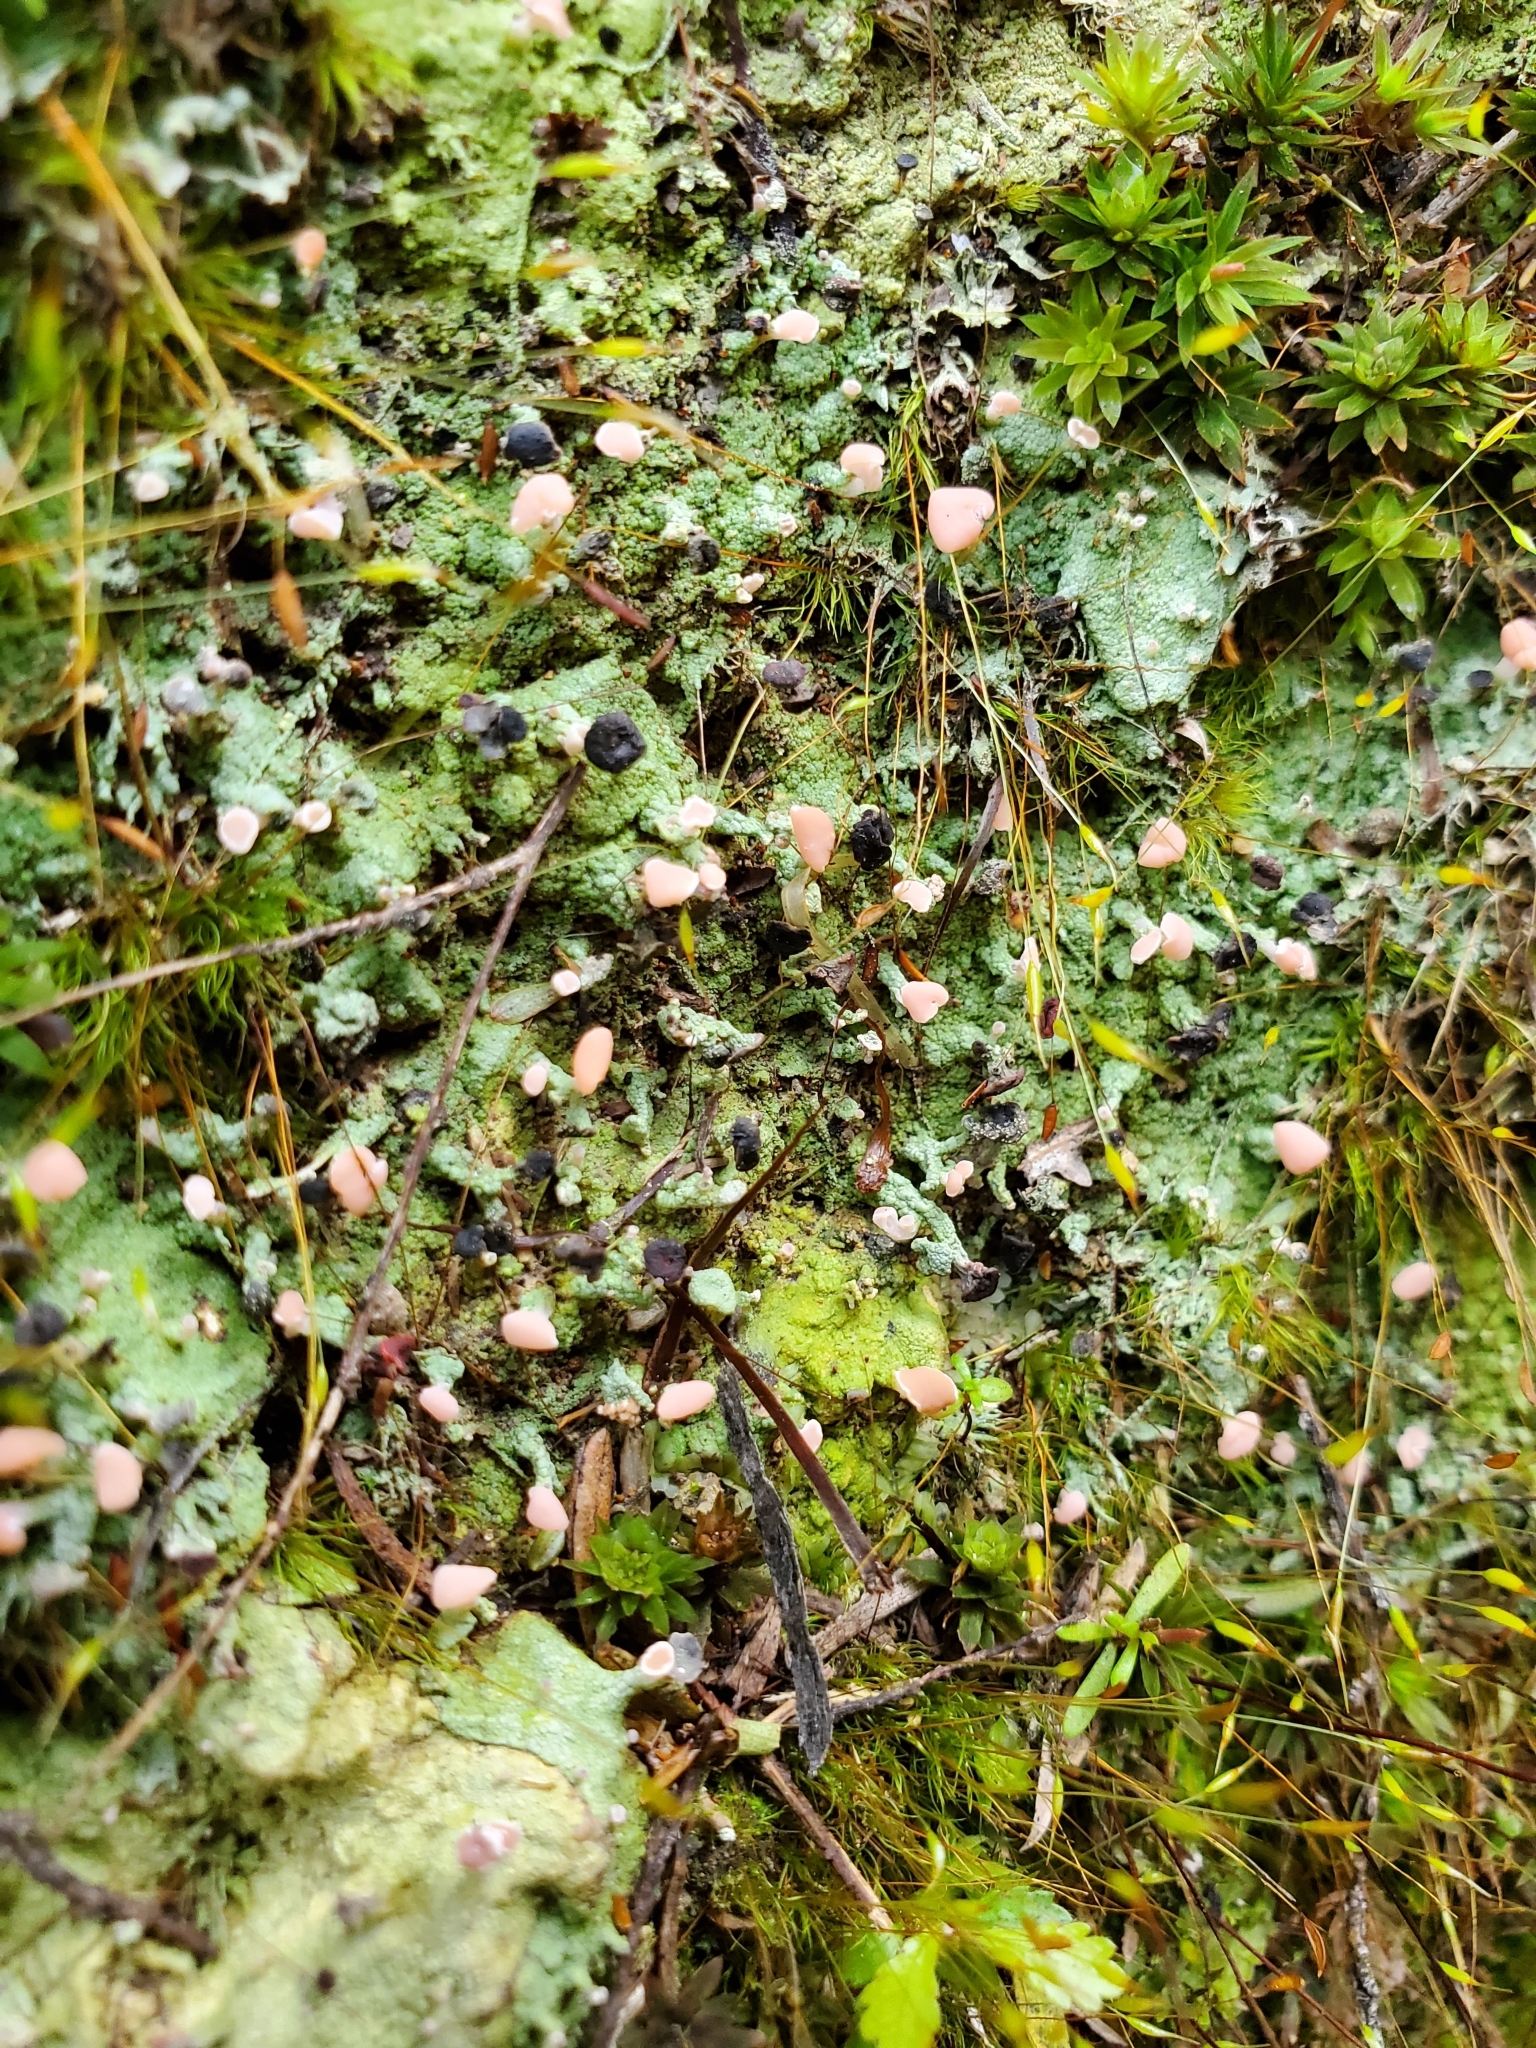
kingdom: Fungi
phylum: Ascomycota
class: Lecanoromycetes
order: Baeomycetales
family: Baeomycetaceae
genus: Baeomyces
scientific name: Baeomyces heteromorphus
